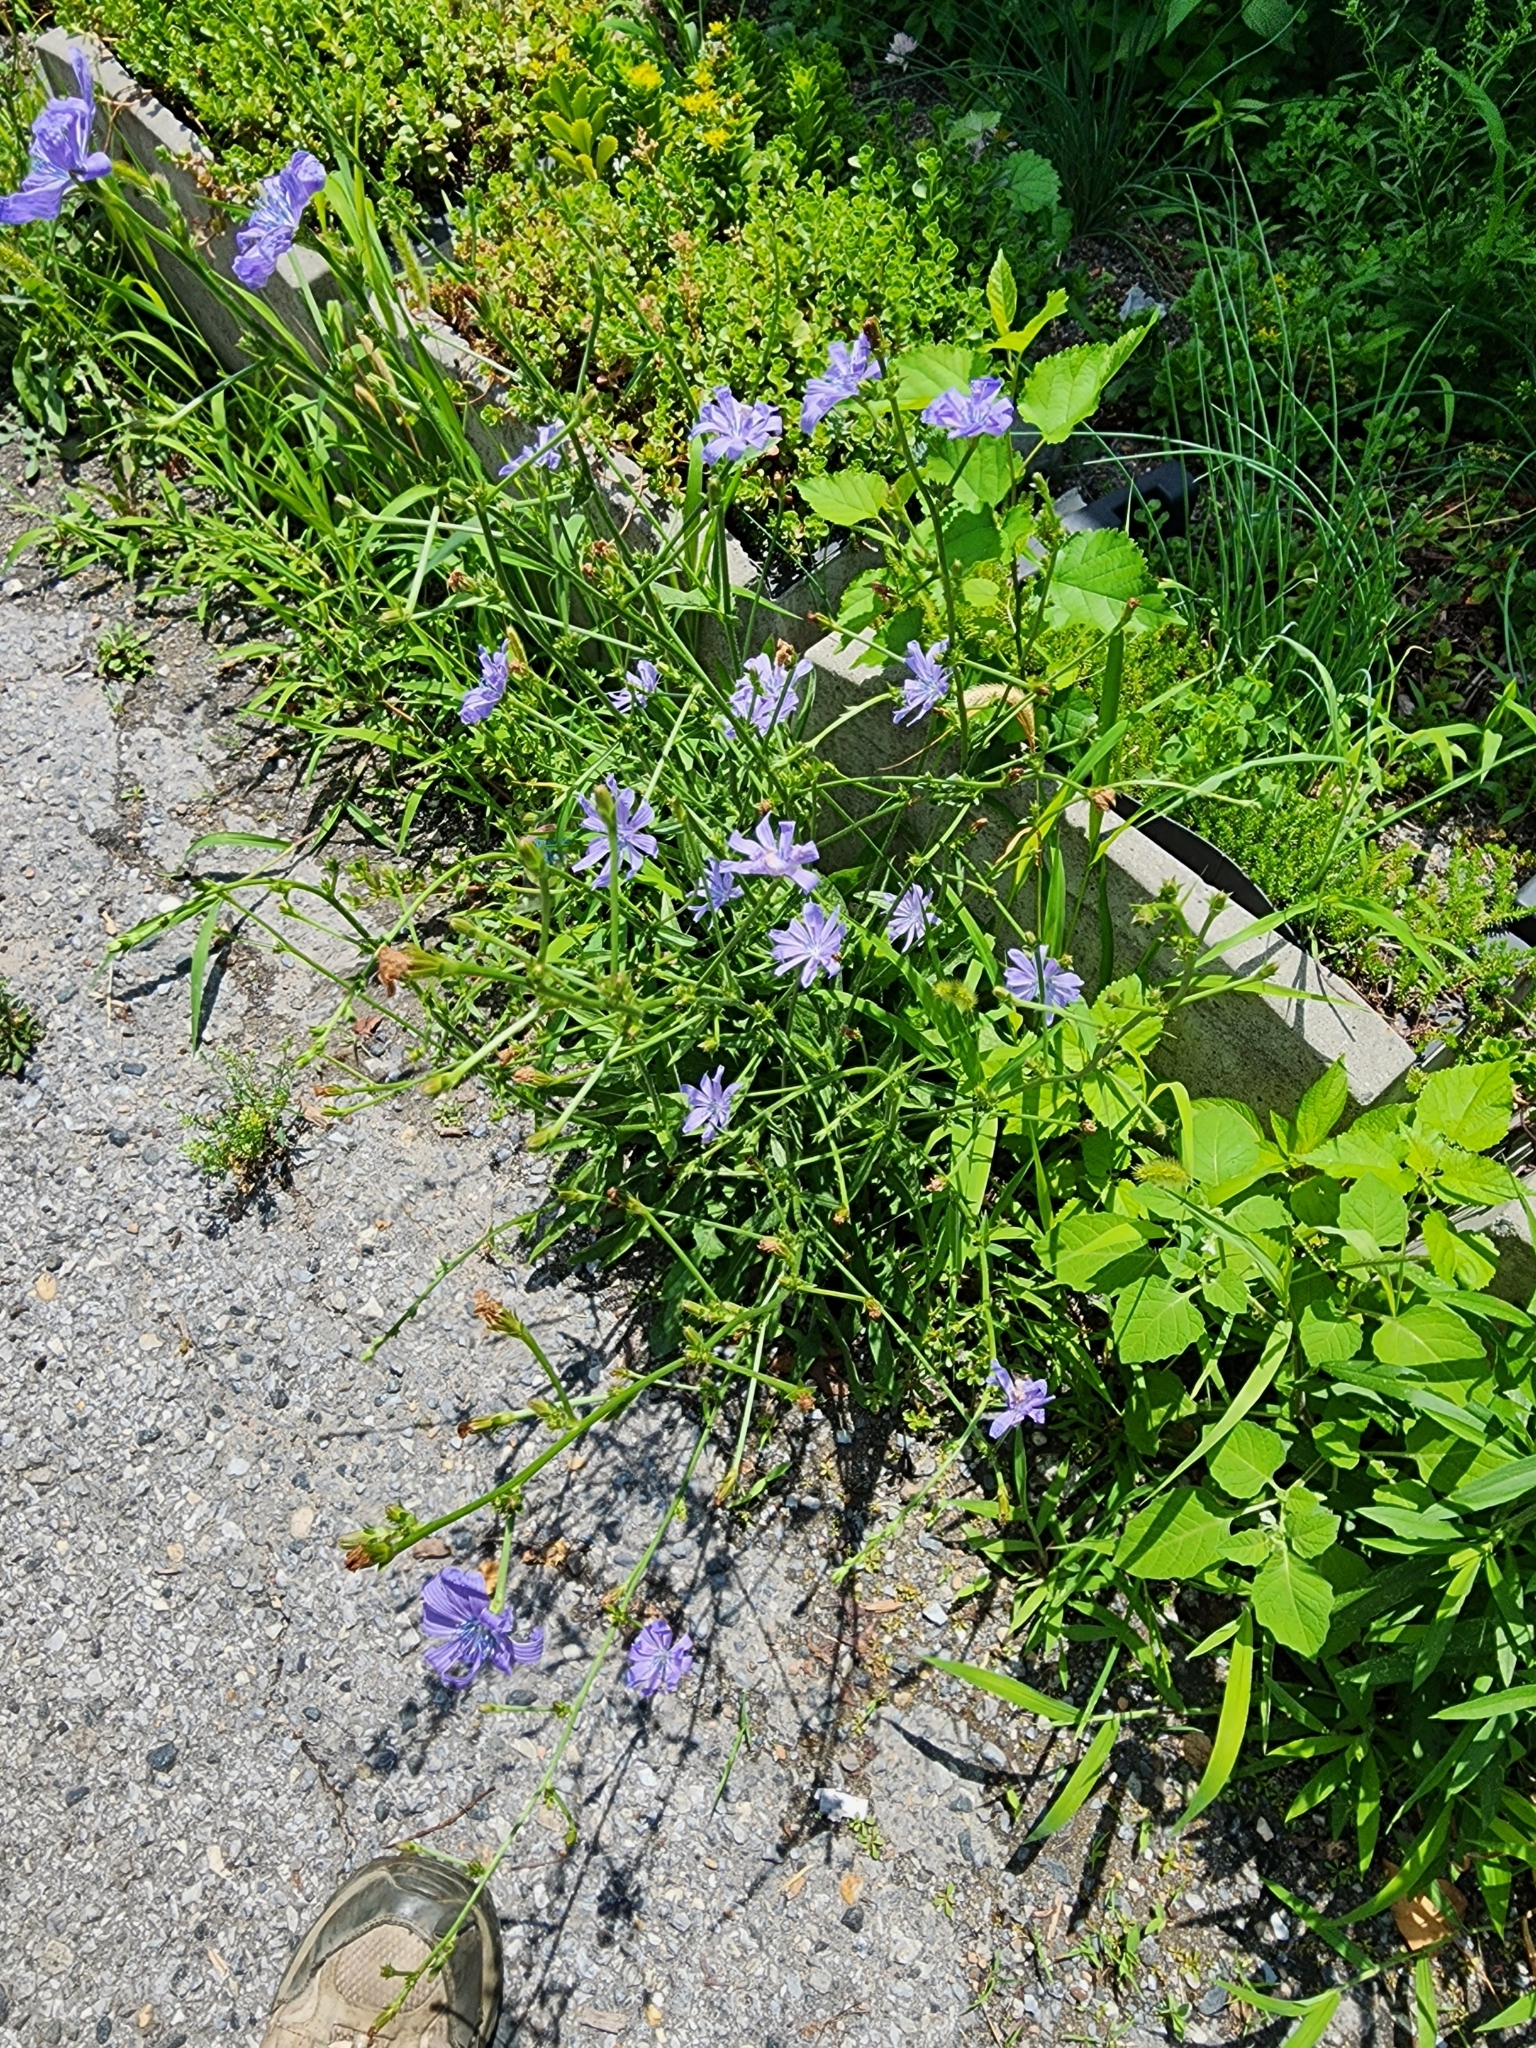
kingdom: Plantae
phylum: Tracheophyta
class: Magnoliopsida
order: Asterales
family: Asteraceae
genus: Cichorium
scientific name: Cichorium intybus
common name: Chicory
